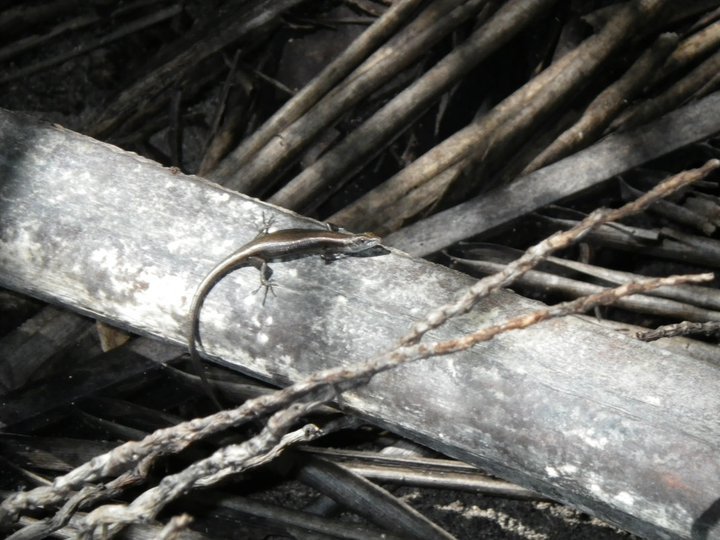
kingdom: Animalia
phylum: Chordata
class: Squamata
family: Scincidae
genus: Carlia
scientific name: Carlia fusca
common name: Brown four-fingered skink
